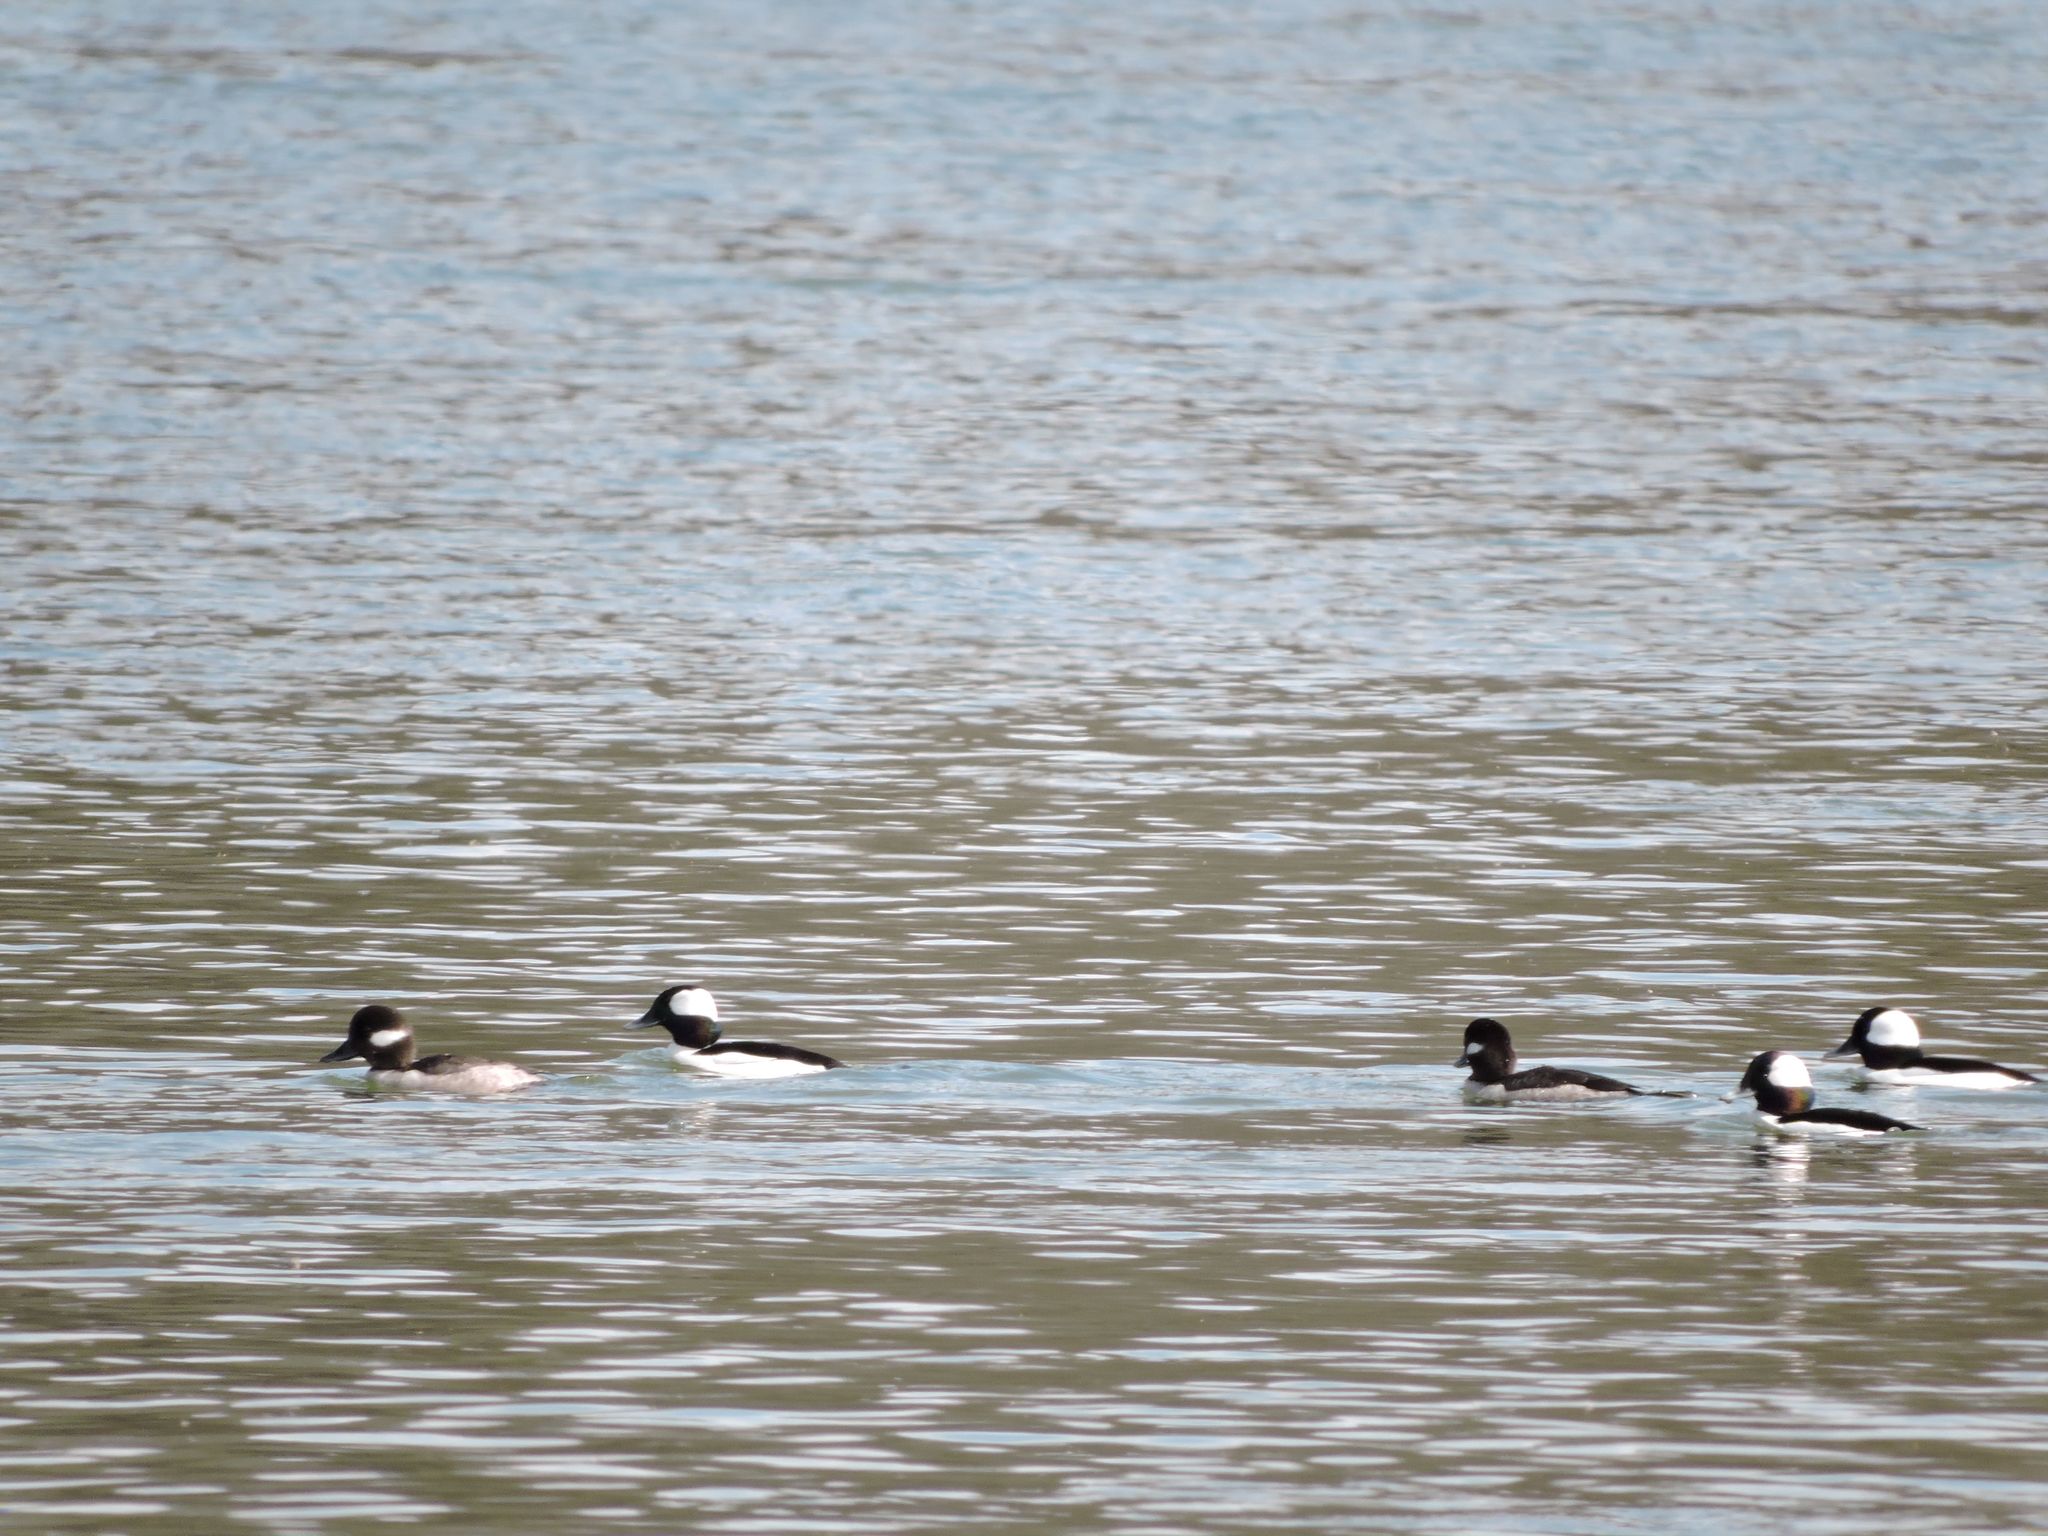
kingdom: Animalia
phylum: Chordata
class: Aves
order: Anseriformes
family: Anatidae
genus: Bucephala
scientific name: Bucephala albeola
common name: Bufflehead
